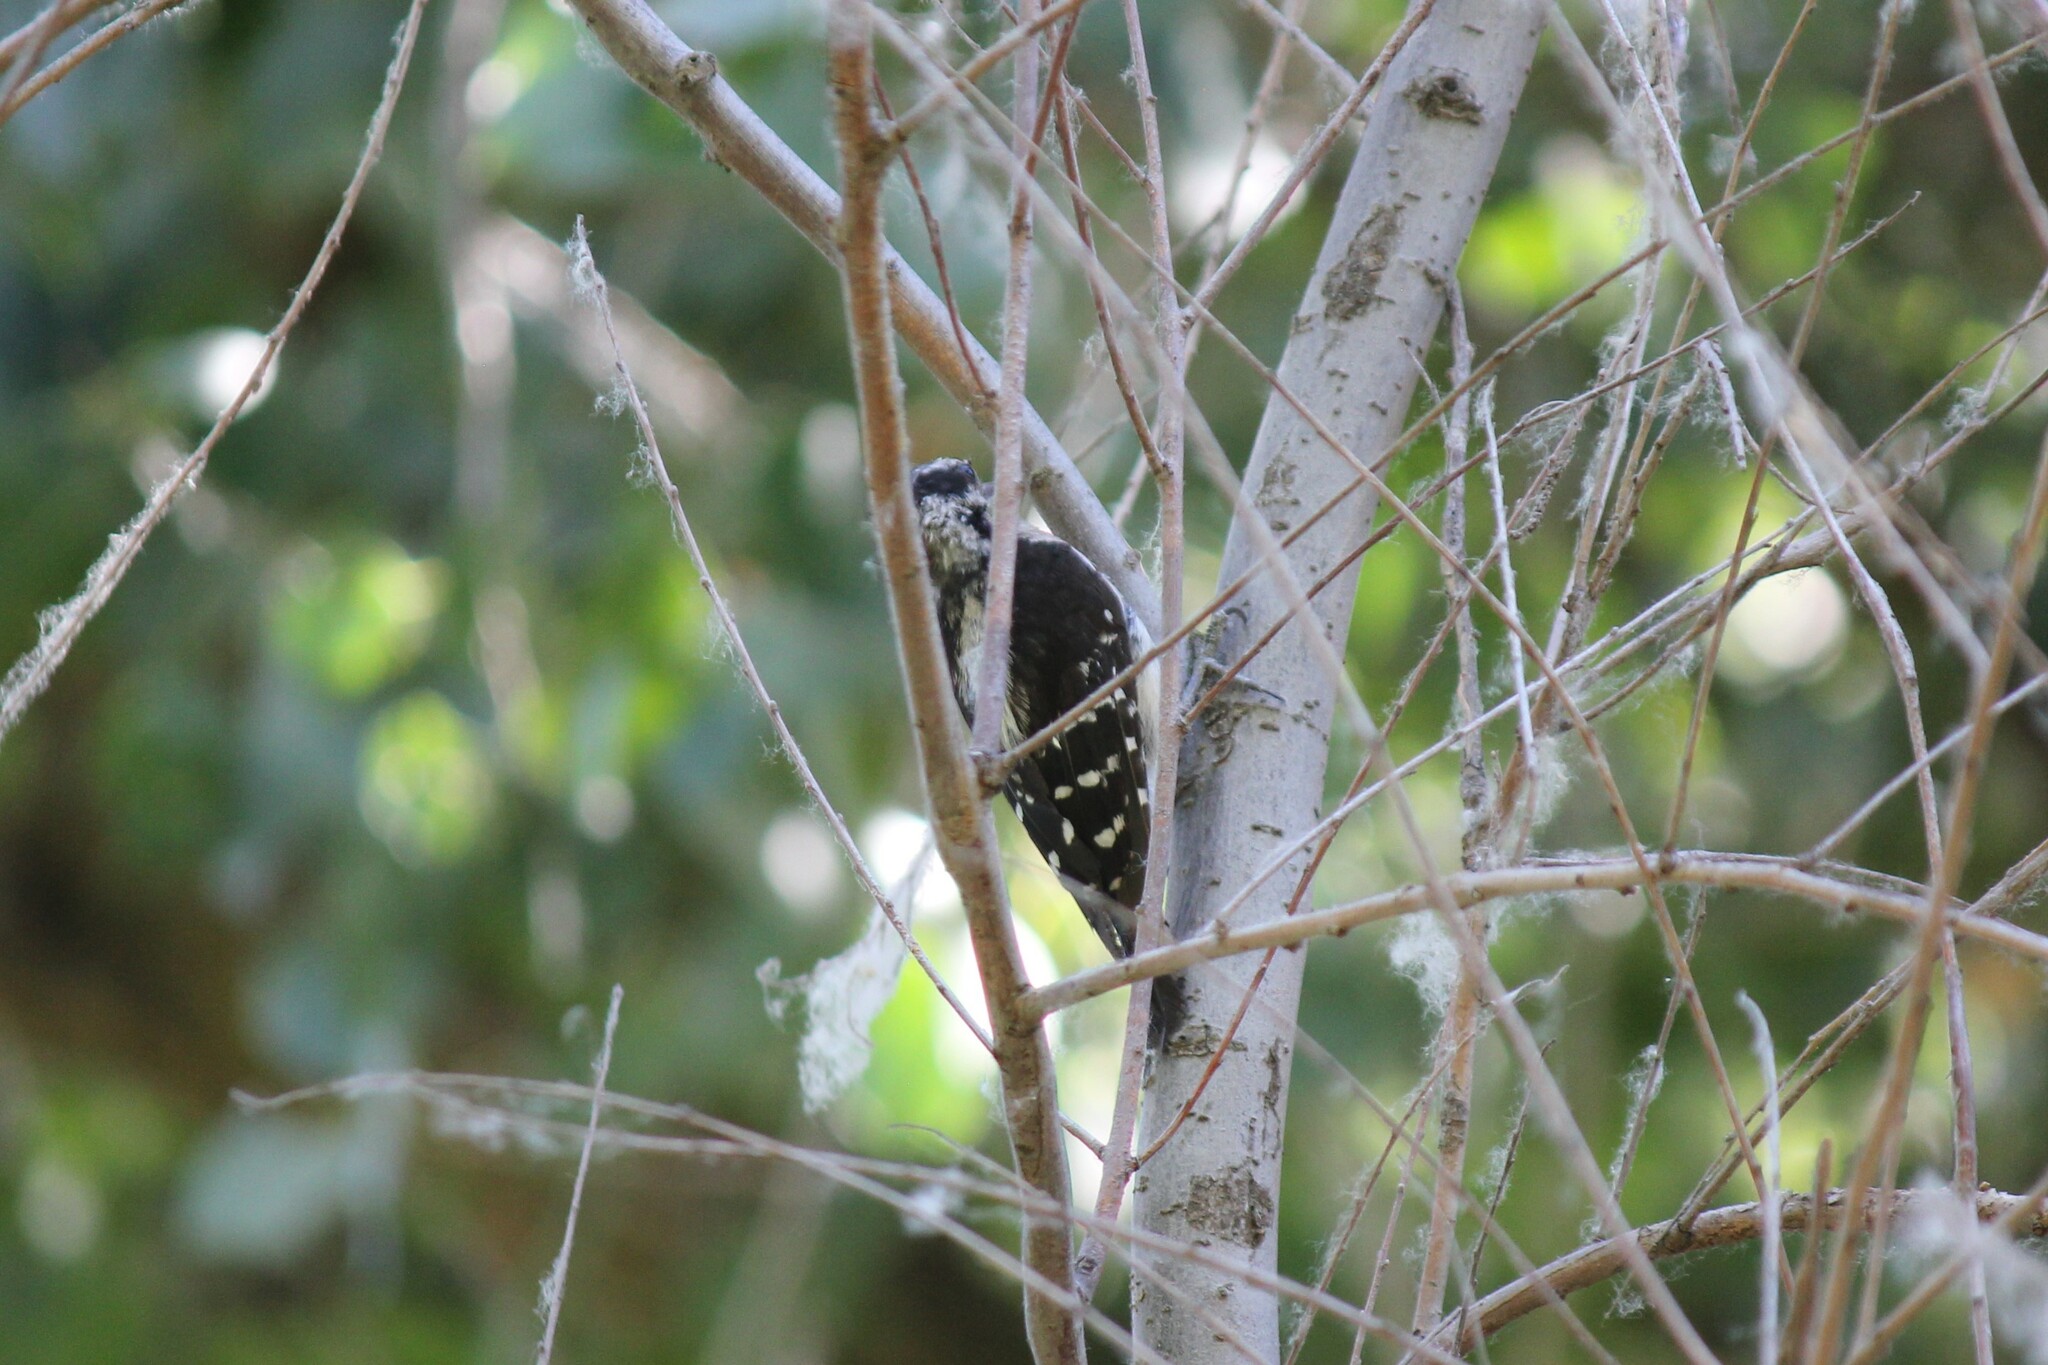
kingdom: Animalia
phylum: Chordata
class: Aves
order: Piciformes
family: Picidae
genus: Dryobates
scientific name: Dryobates pubescens
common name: Downy woodpecker
